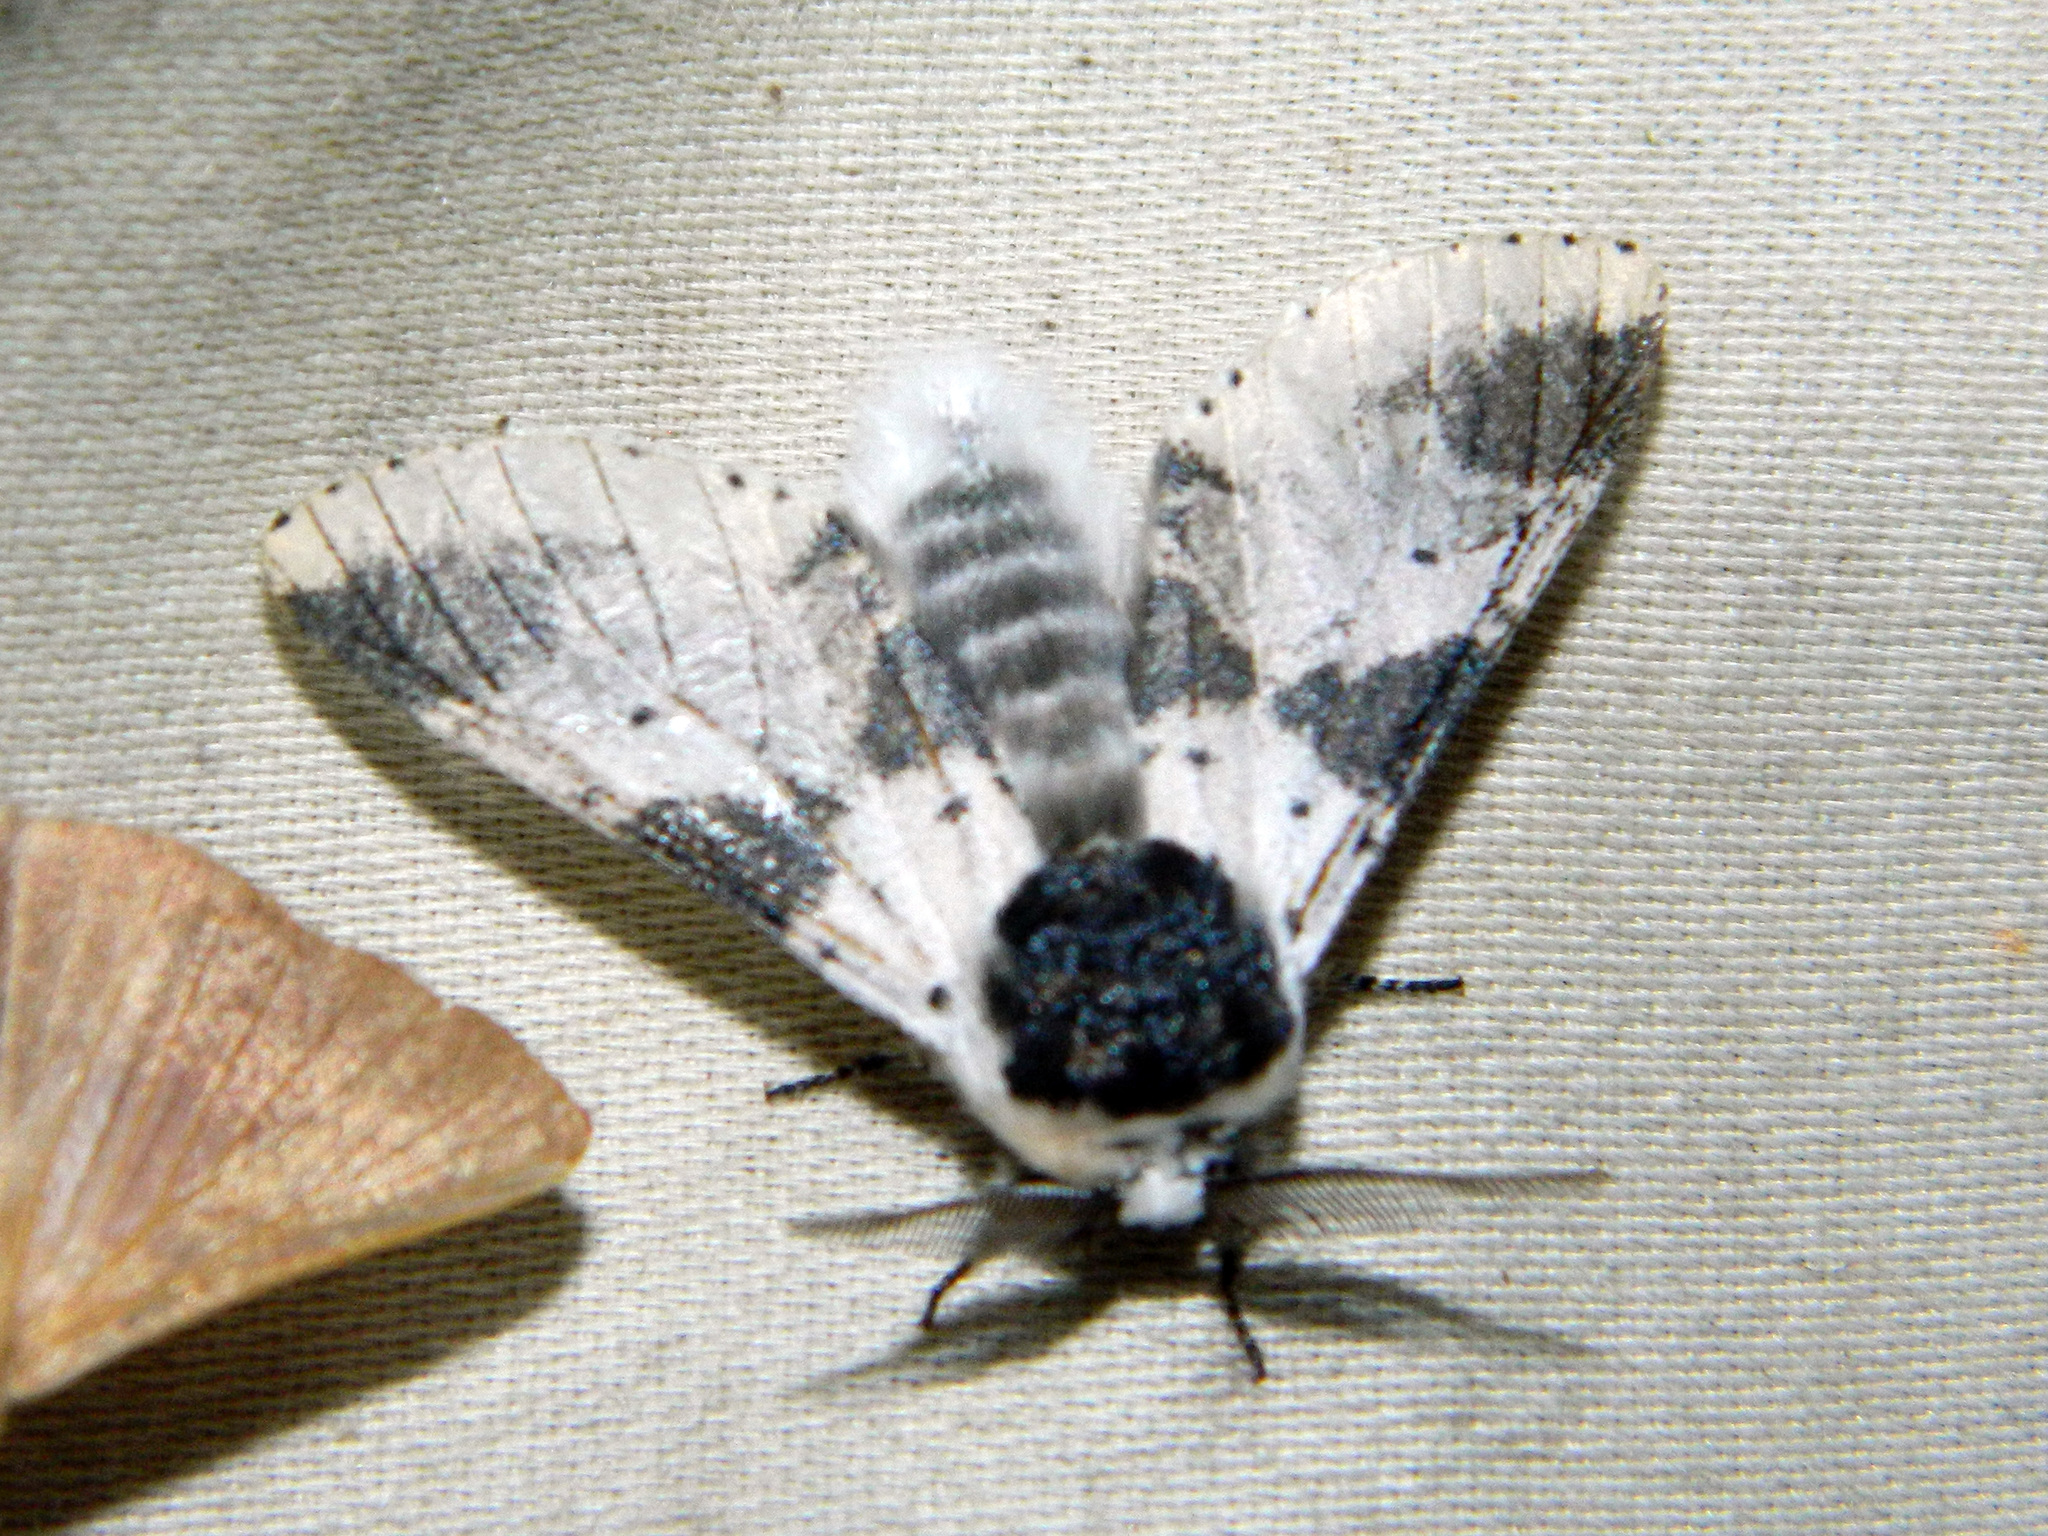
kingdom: Animalia
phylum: Arthropoda
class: Insecta
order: Lepidoptera
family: Notodontidae
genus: Furcula
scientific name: Furcula modesta
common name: Modest furcula moth
